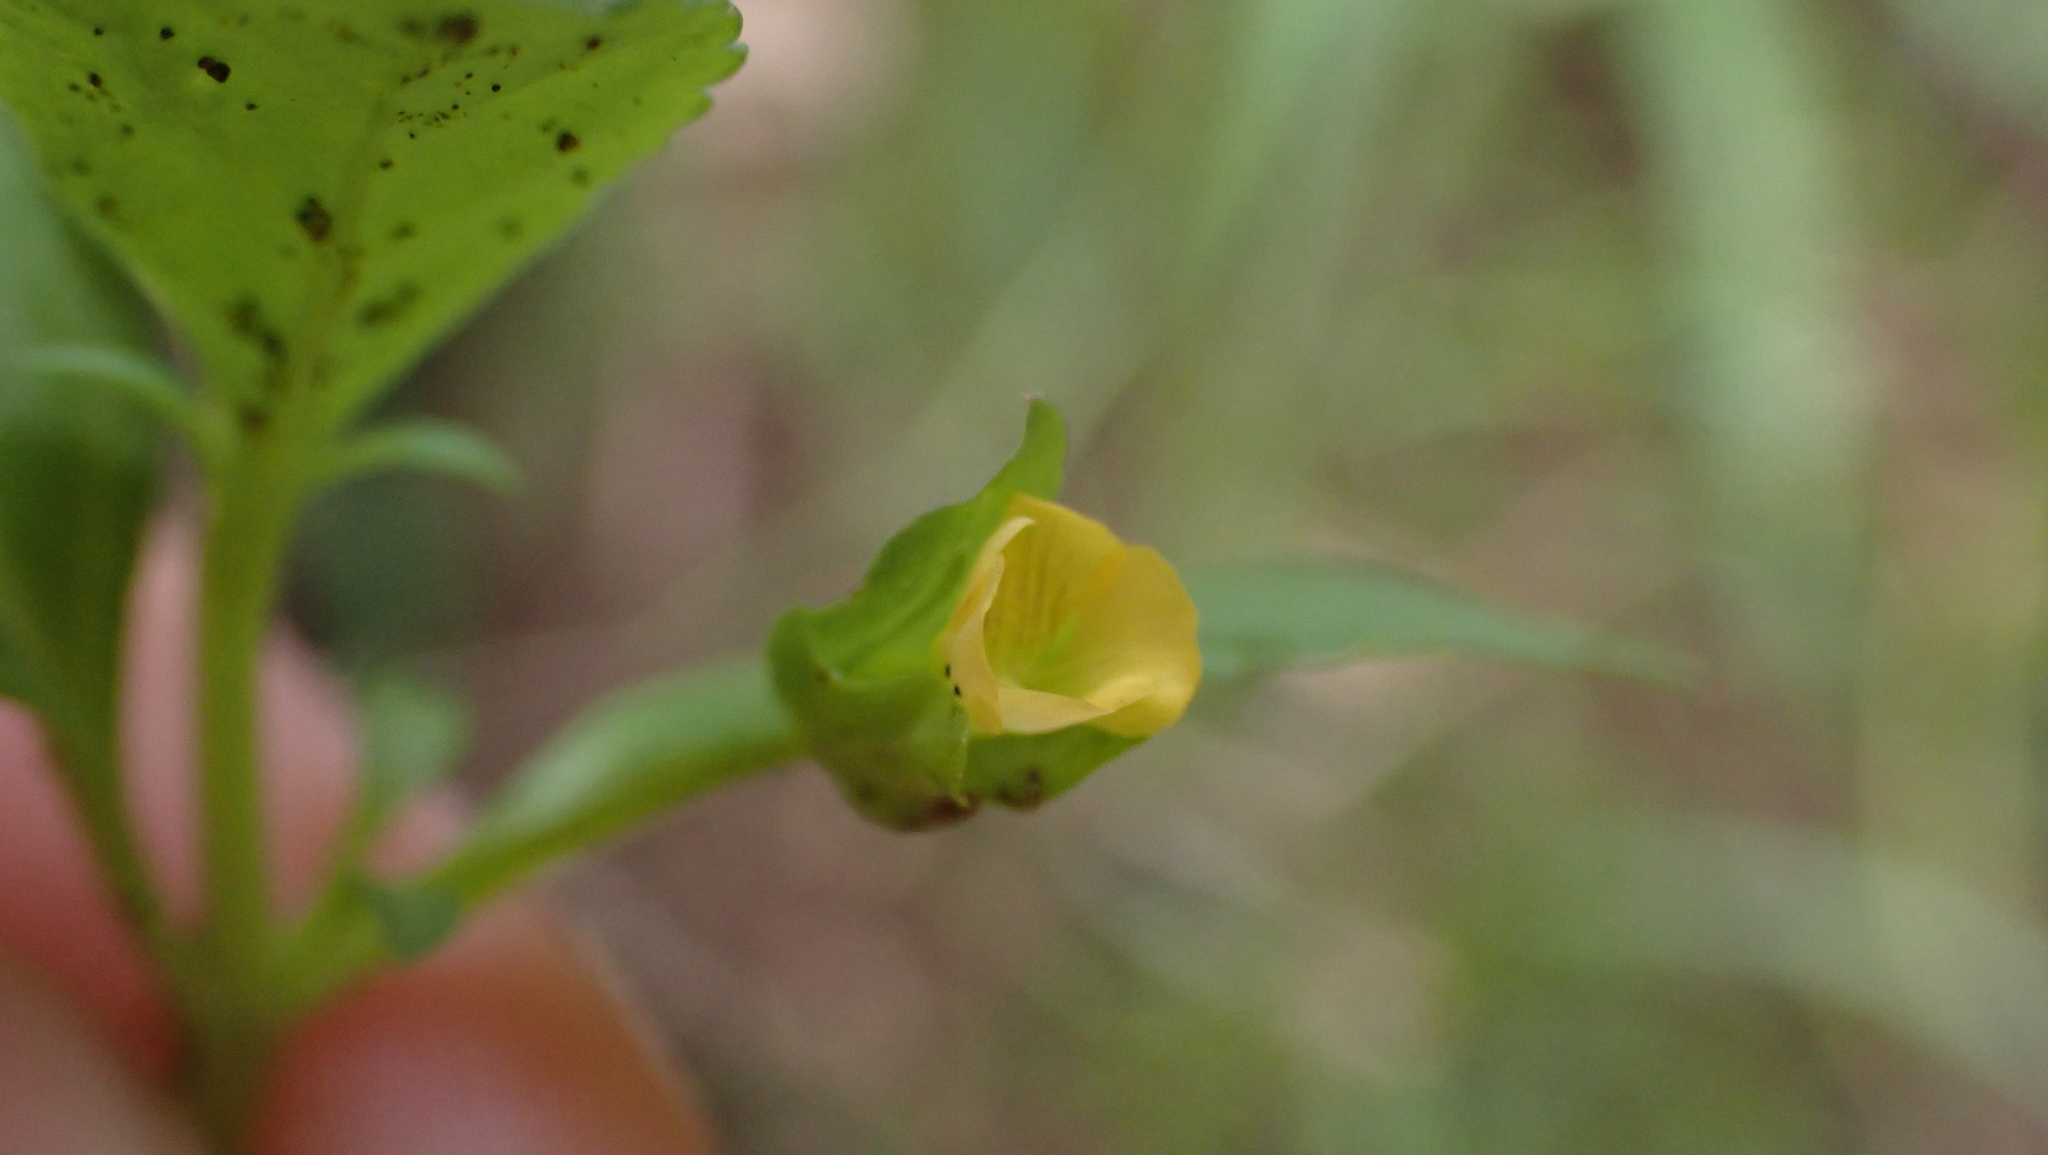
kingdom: Plantae
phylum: Tracheophyta
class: Magnoliopsida
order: Lamiales
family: Plantaginaceae
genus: Mecardonia
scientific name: Mecardonia procumbens
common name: Baby jump-up
